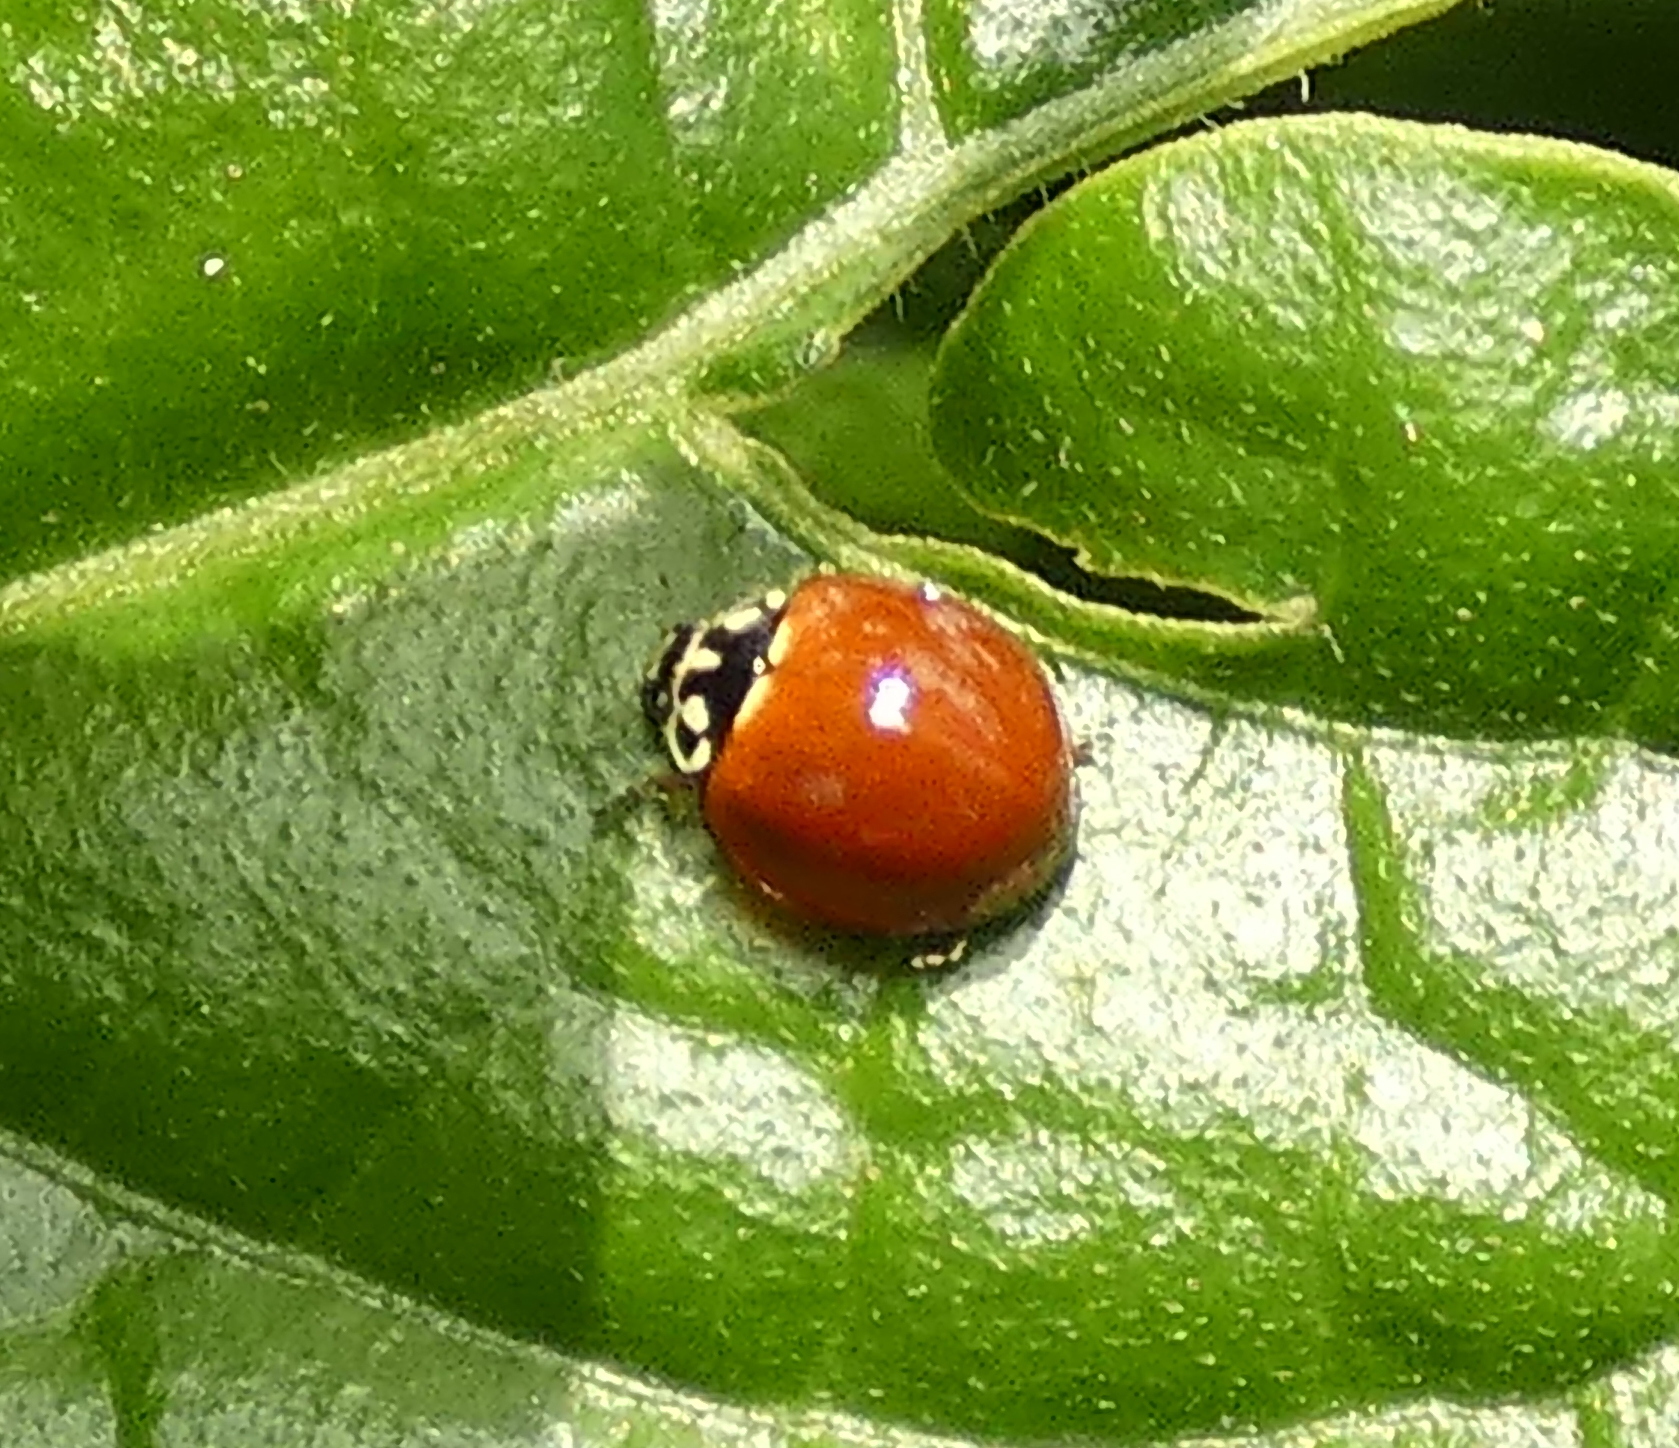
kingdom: Animalia
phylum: Arthropoda
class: Insecta
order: Coleoptera
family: Coccinellidae
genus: Cycloneda
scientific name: Cycloneda sanguinea
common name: Ladybird beetle
